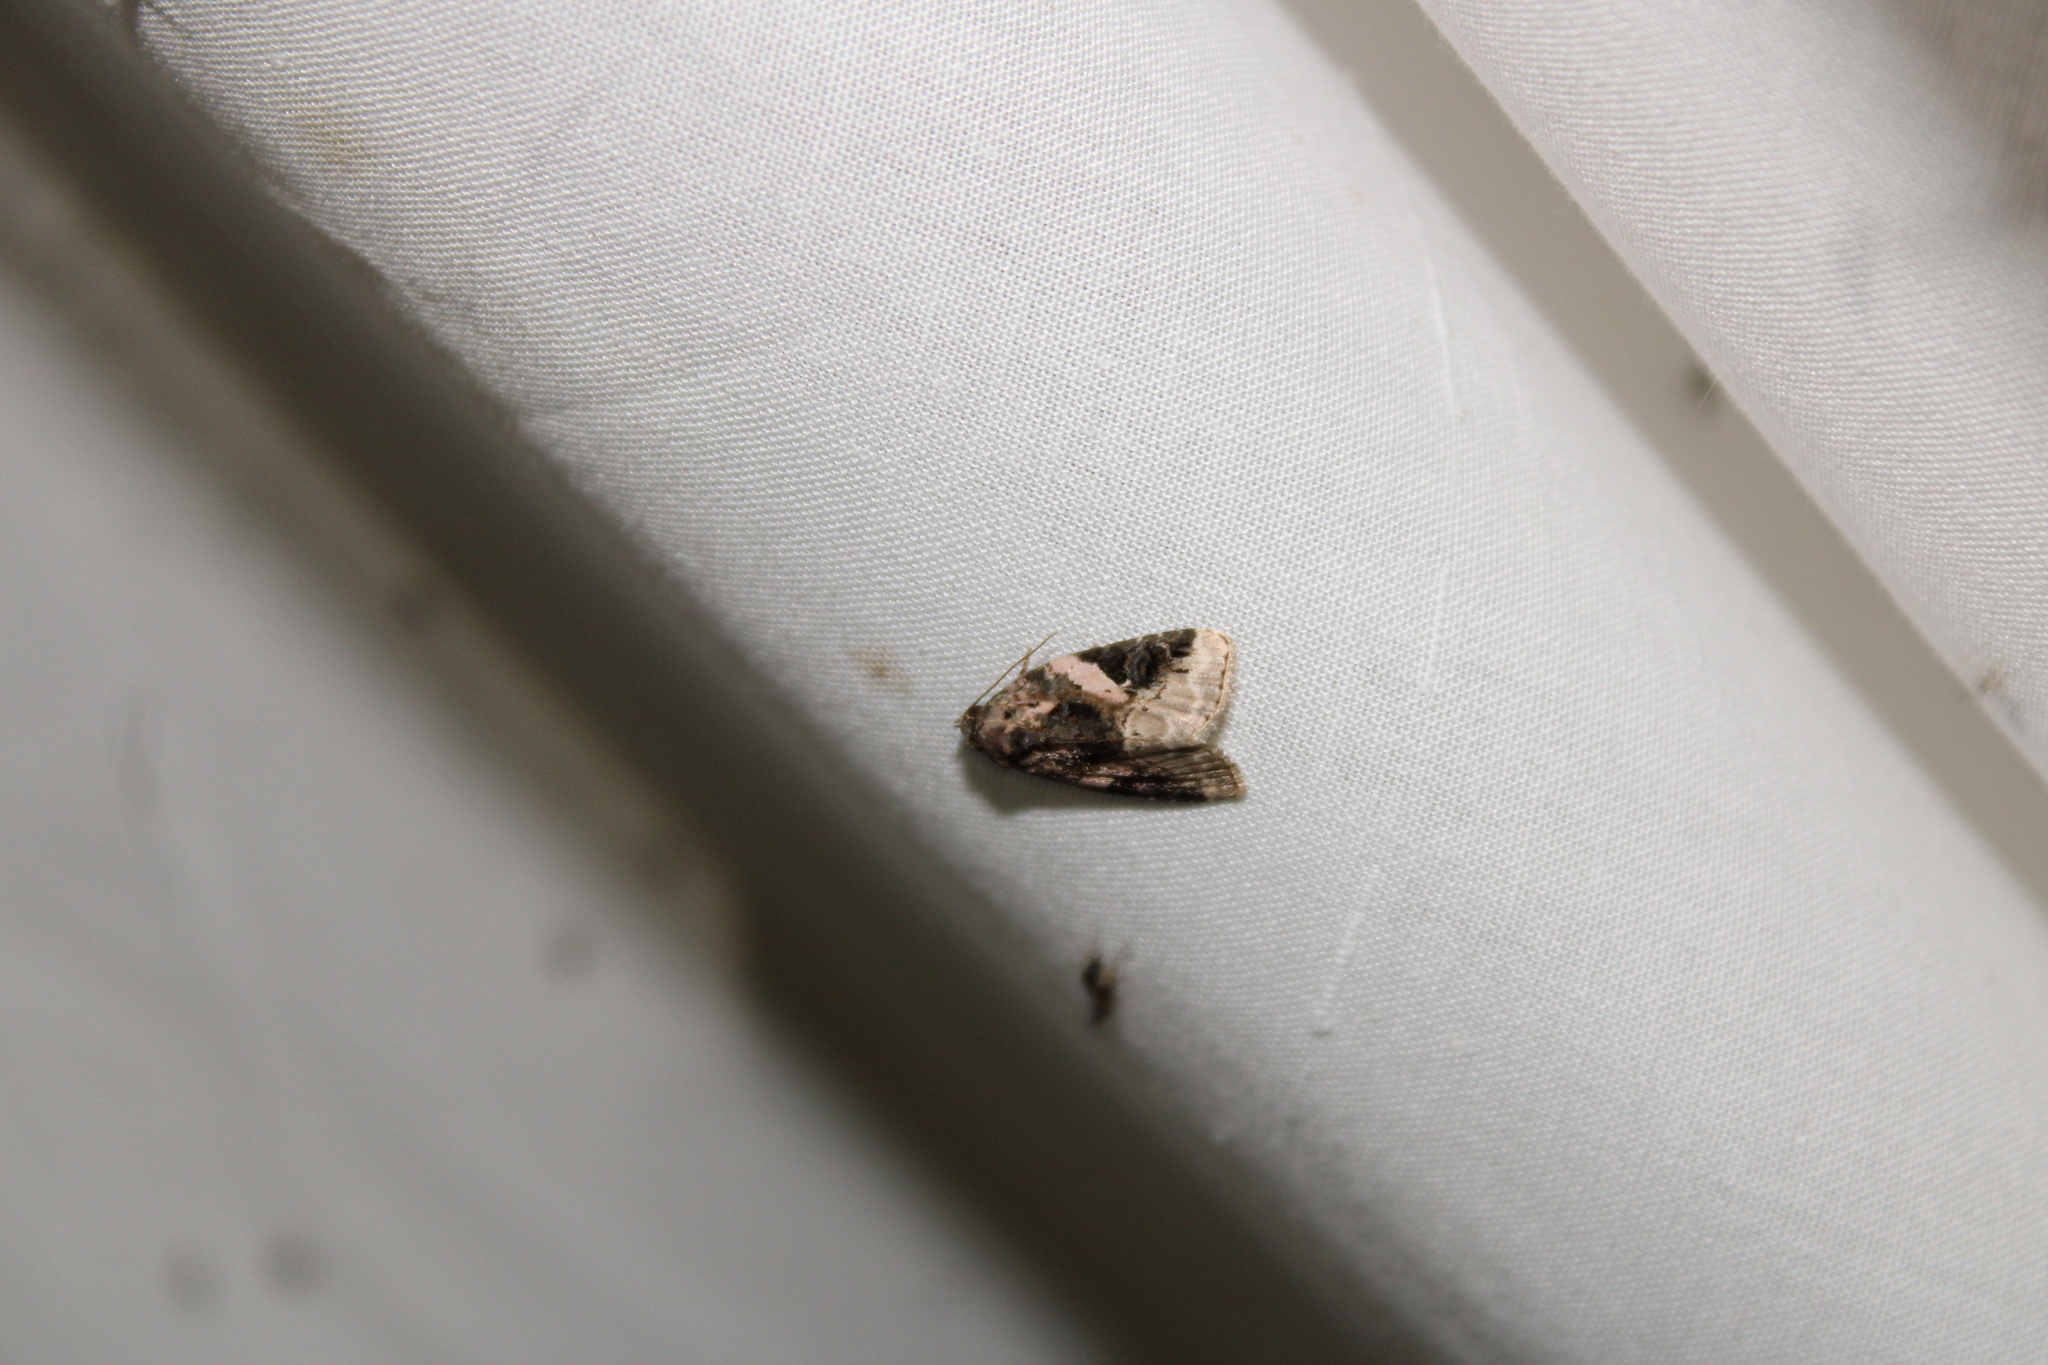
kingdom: Animalia
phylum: Arthropoda
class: Insecta
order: Lepidoptera
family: Noctuidae
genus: Pseudeustrotia
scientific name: Pseudeustrotia carneola
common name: Pink-barred lithacodia moth
